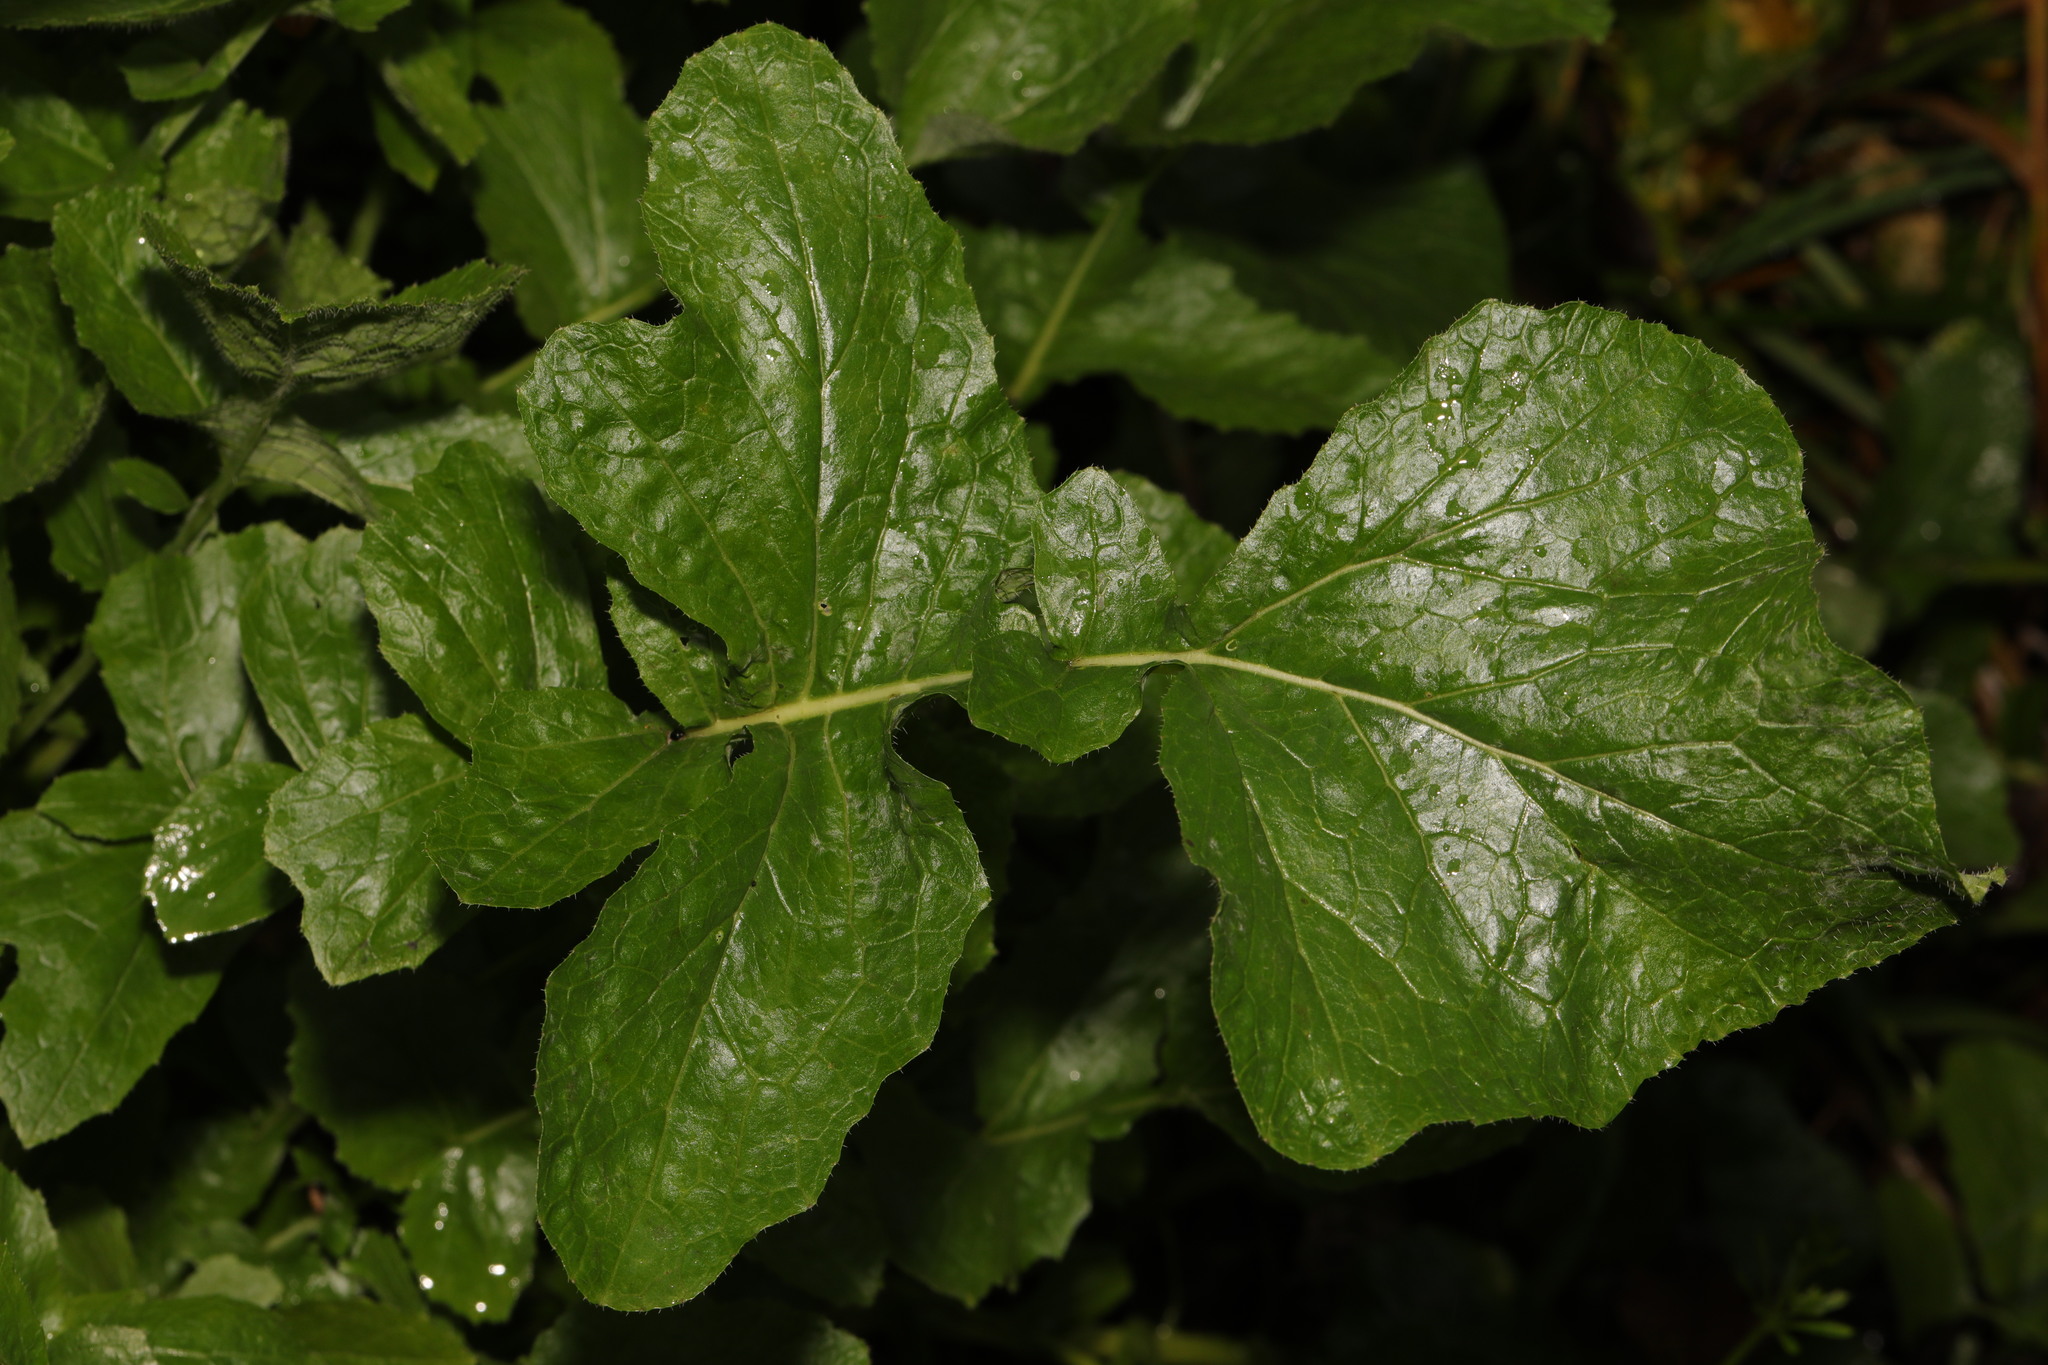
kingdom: Plantae
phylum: Tracheophyta
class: Magnoliopsida
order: Brassicales
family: Brassicaceae
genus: Raphanus
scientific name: Raphanus raphanistrum
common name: Wild radish
